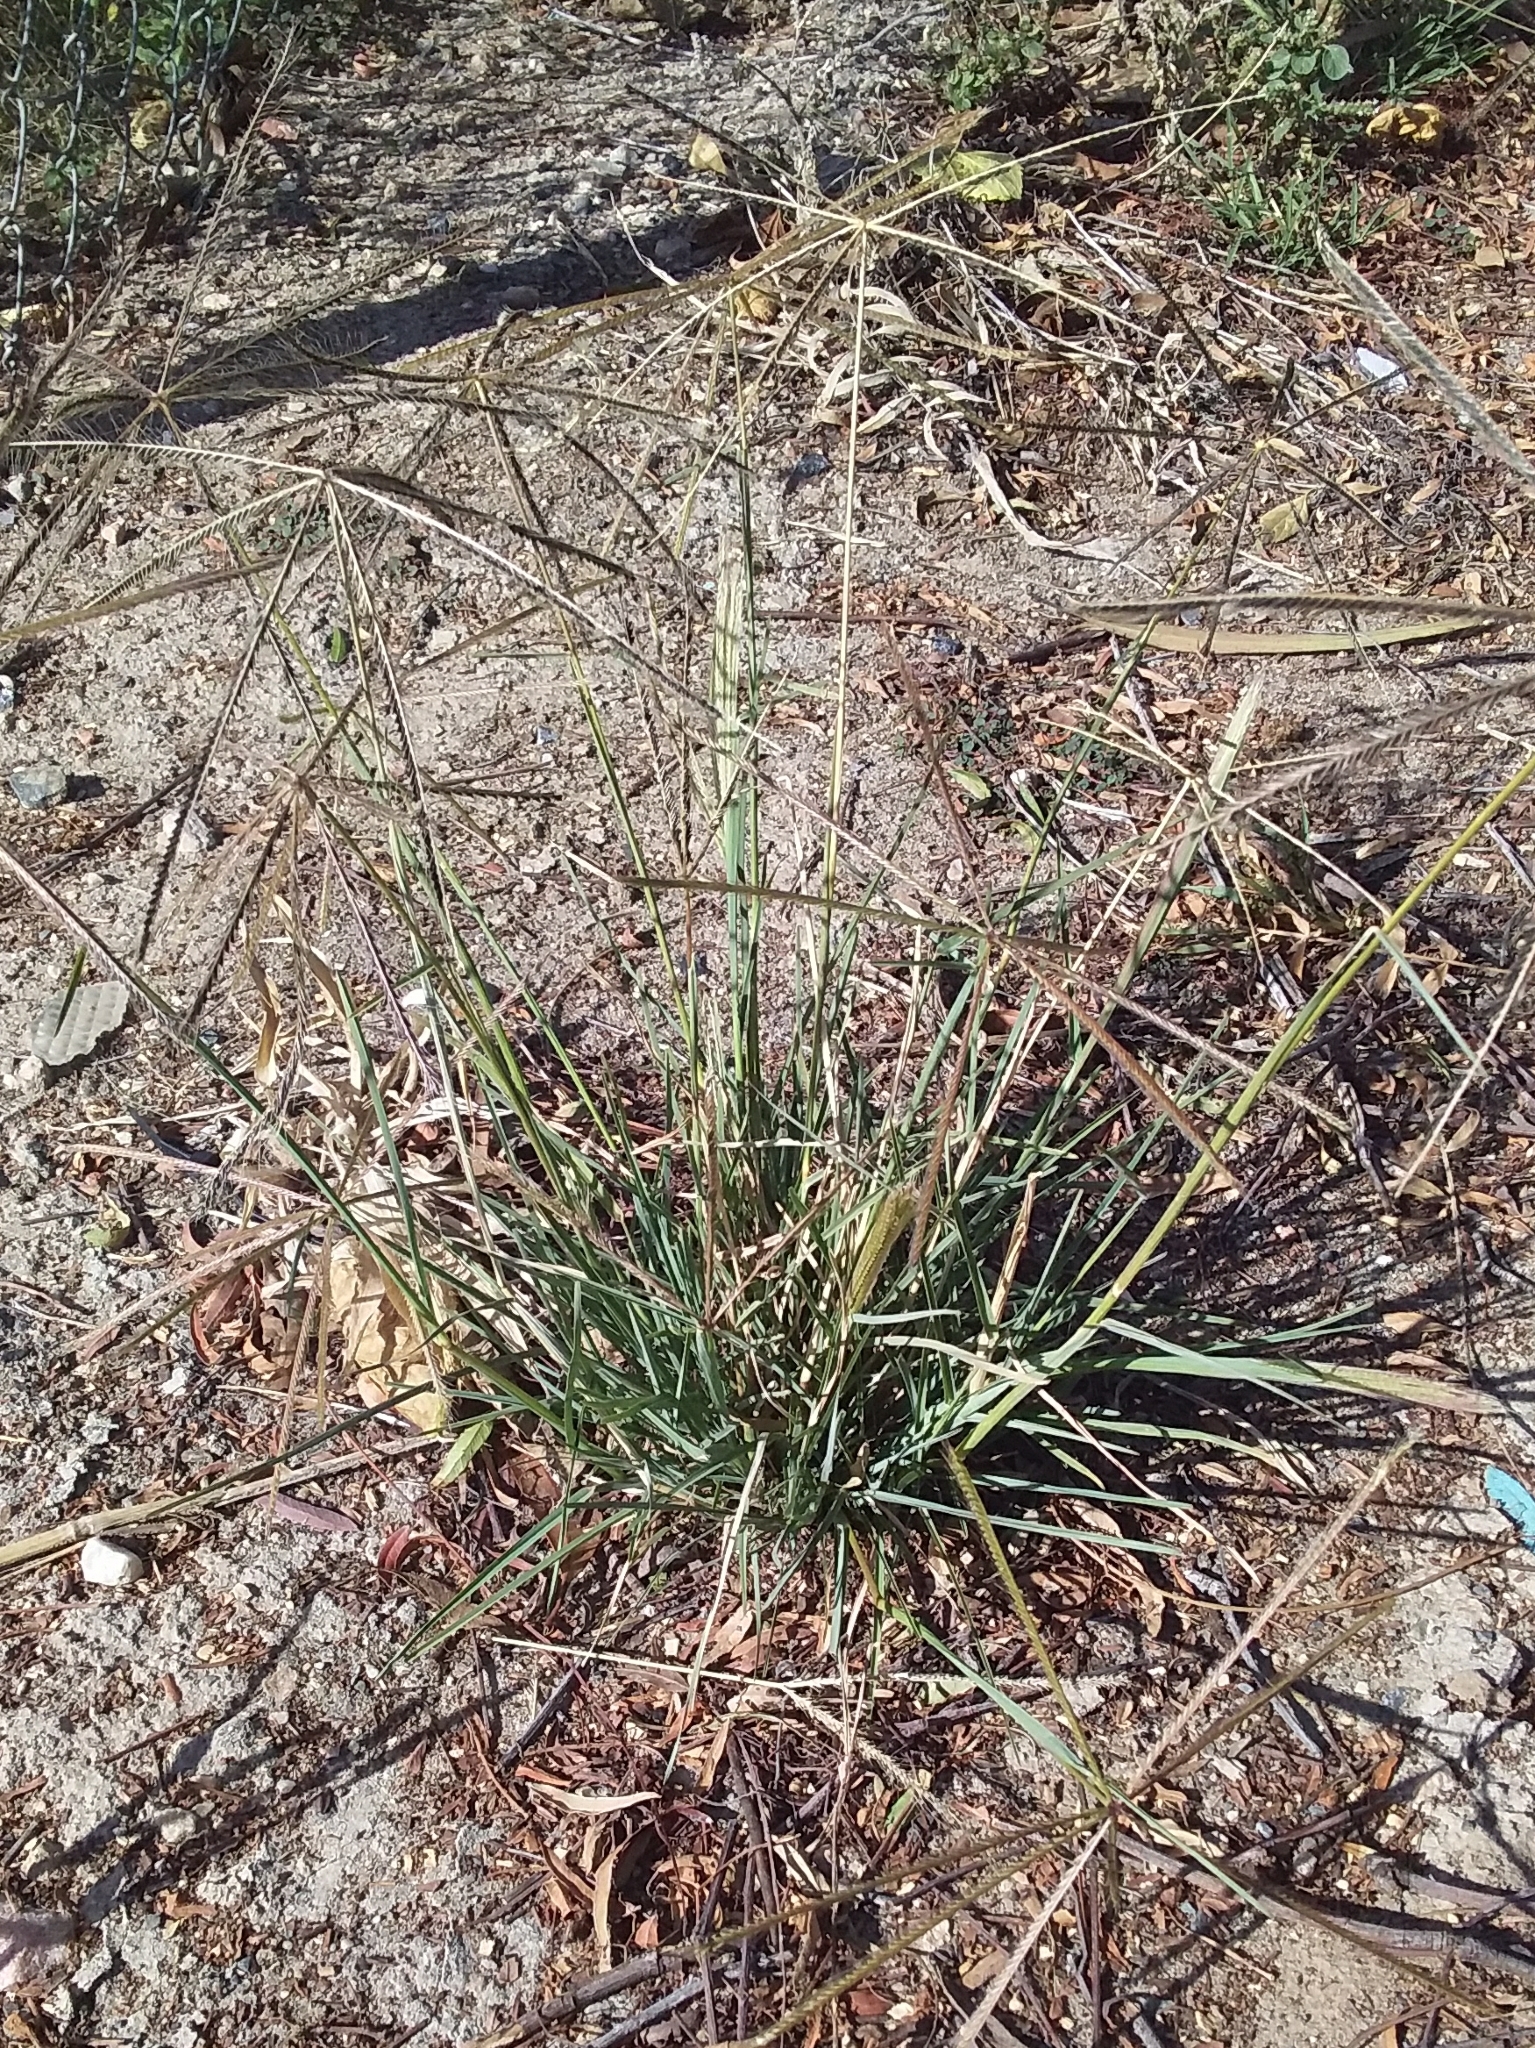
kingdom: Plantae
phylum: Tracheophyta
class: Liliopsida
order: Poales
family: Poaceae
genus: Chloris
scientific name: Chloris truncata
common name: Windmill-grass
